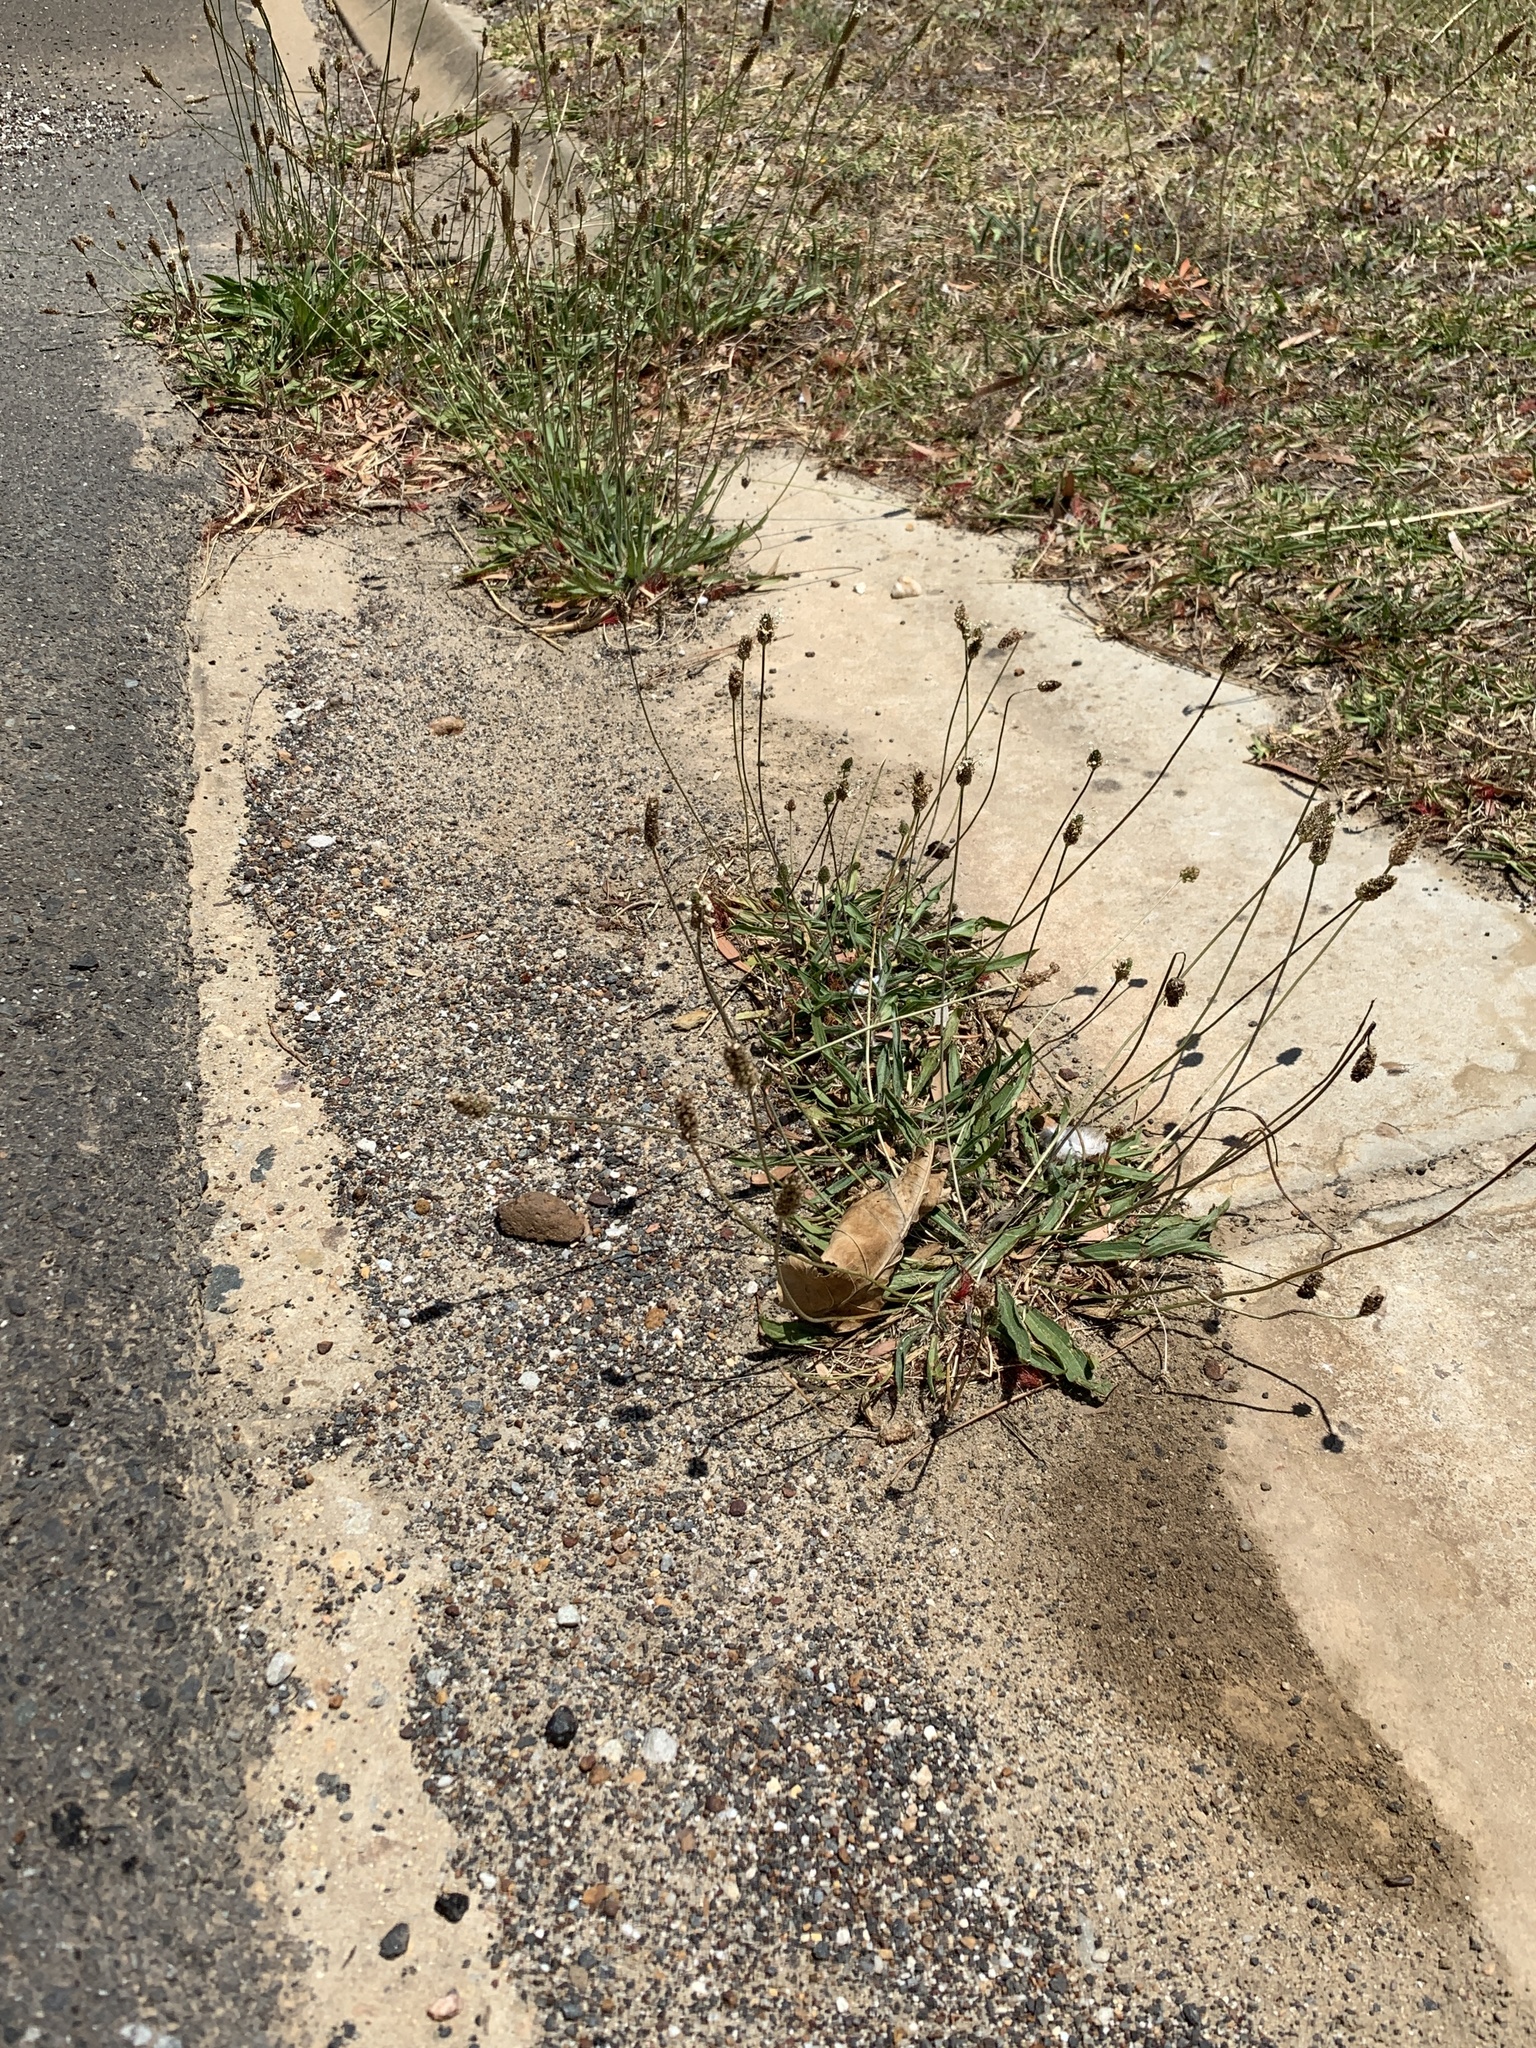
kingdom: Plantae
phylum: Tracheophyta
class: Magnoliopsida
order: Lamiales
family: Plantaginaceae
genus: Plantago
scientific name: Plantago lanceolata
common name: Ribwort plantain
